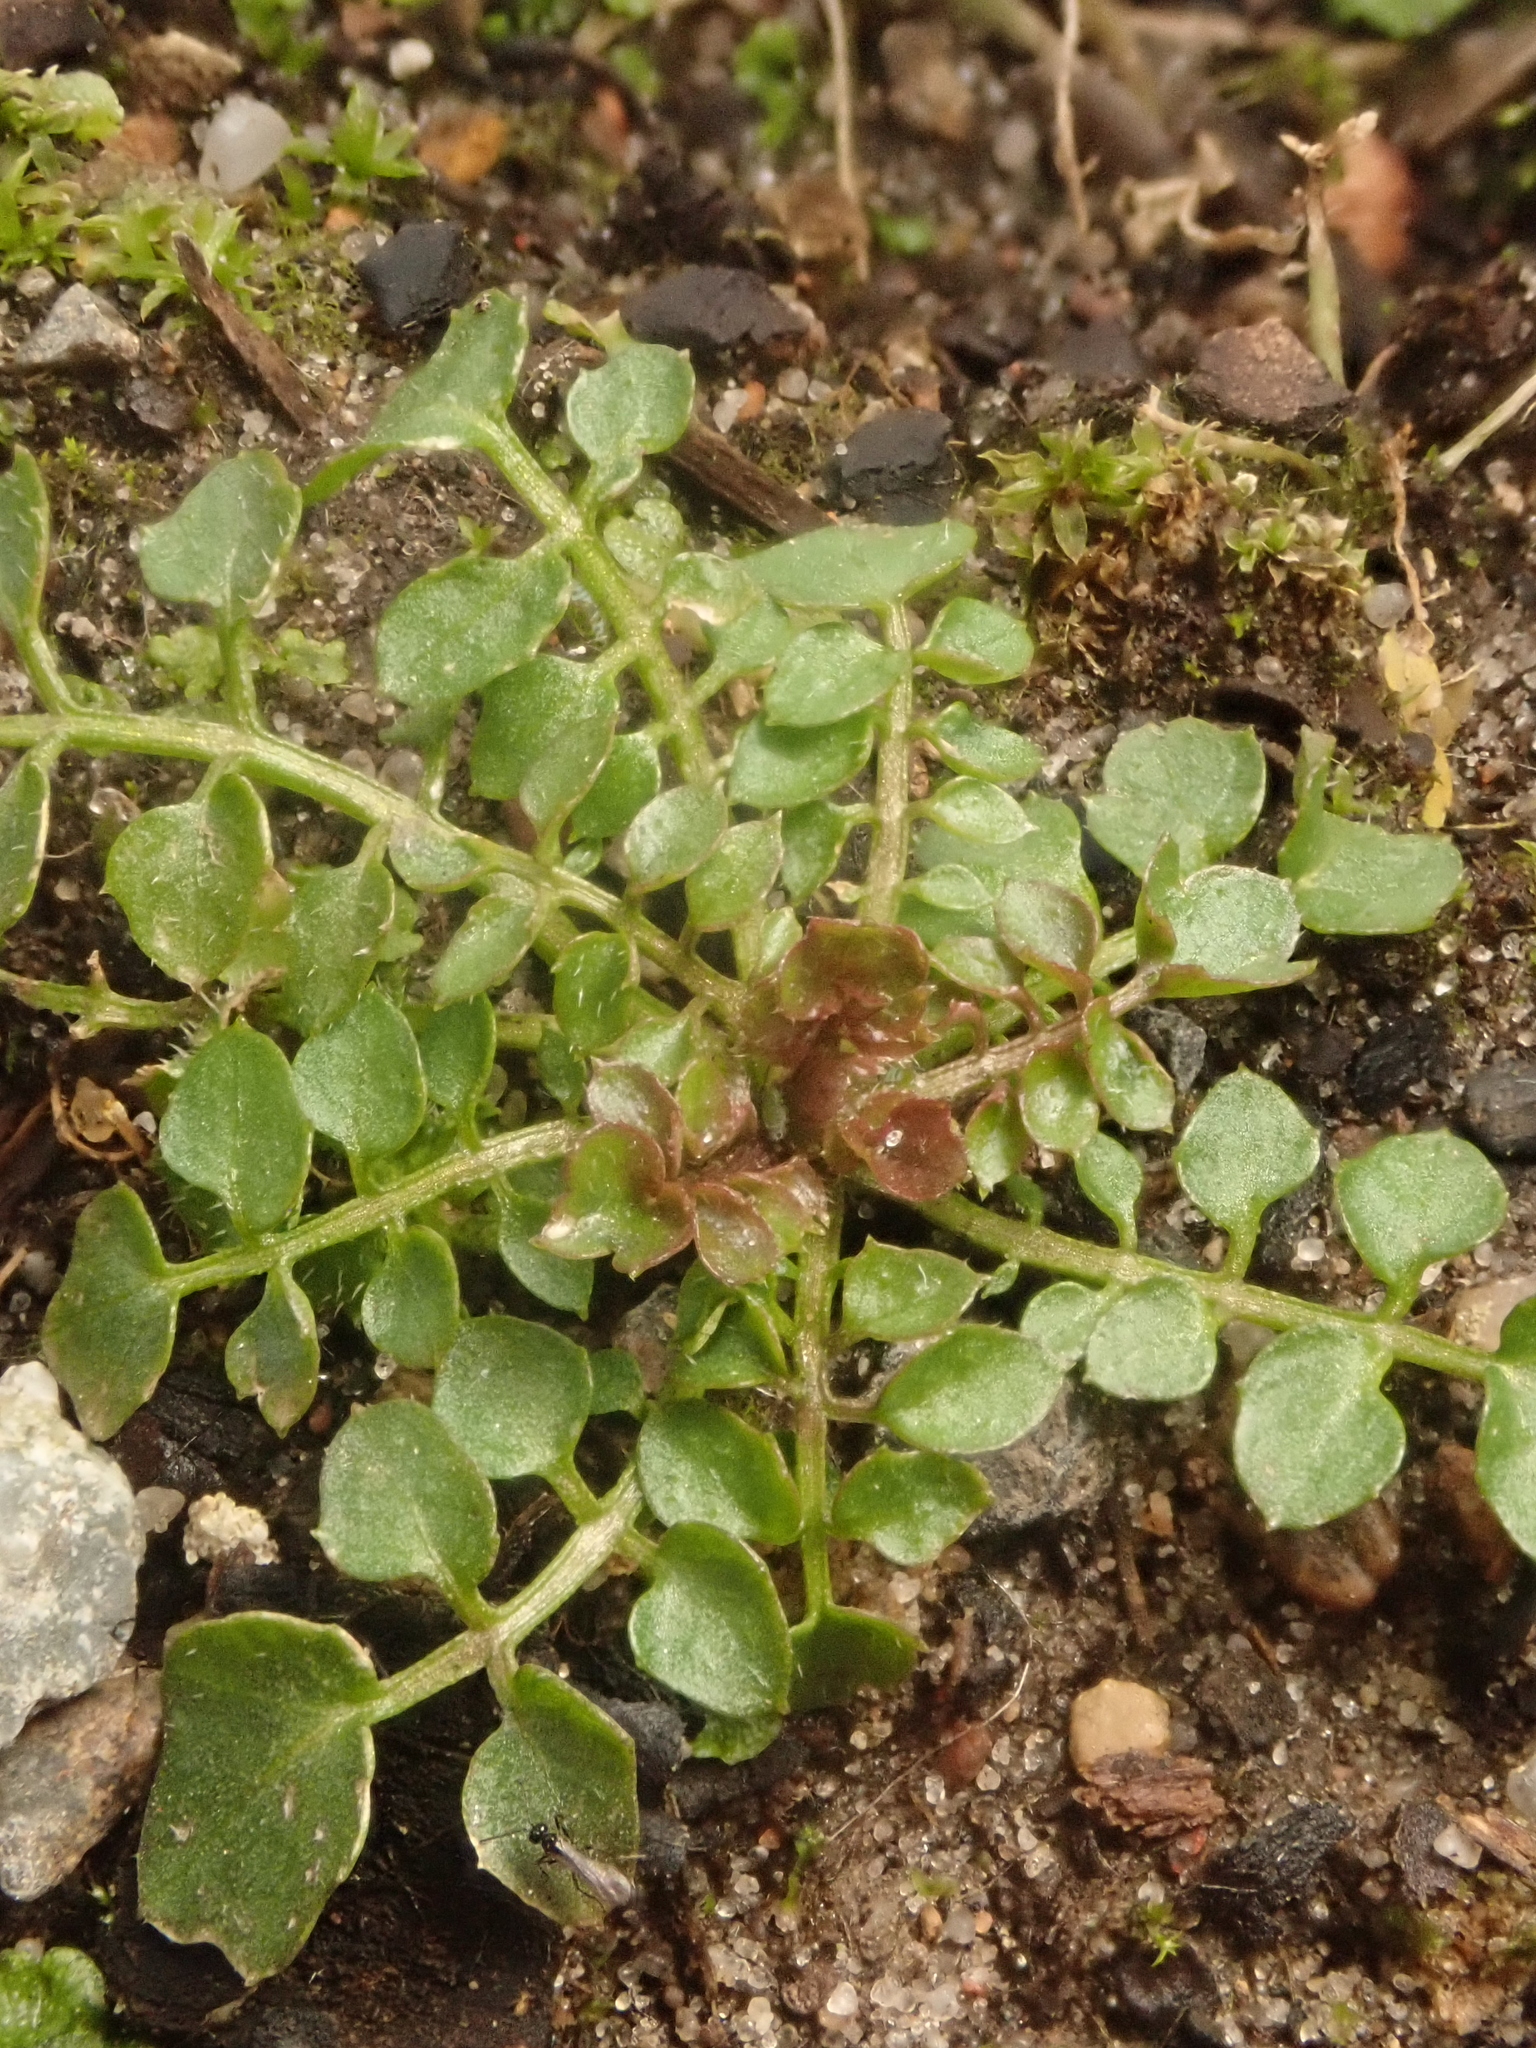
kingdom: Plantae
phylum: Tracheophyta
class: Magnoliopsida
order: Brassicales
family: Brassicaceae
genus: Cardamine
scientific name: Cardamine hirsuta
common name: Hairy bittercress
